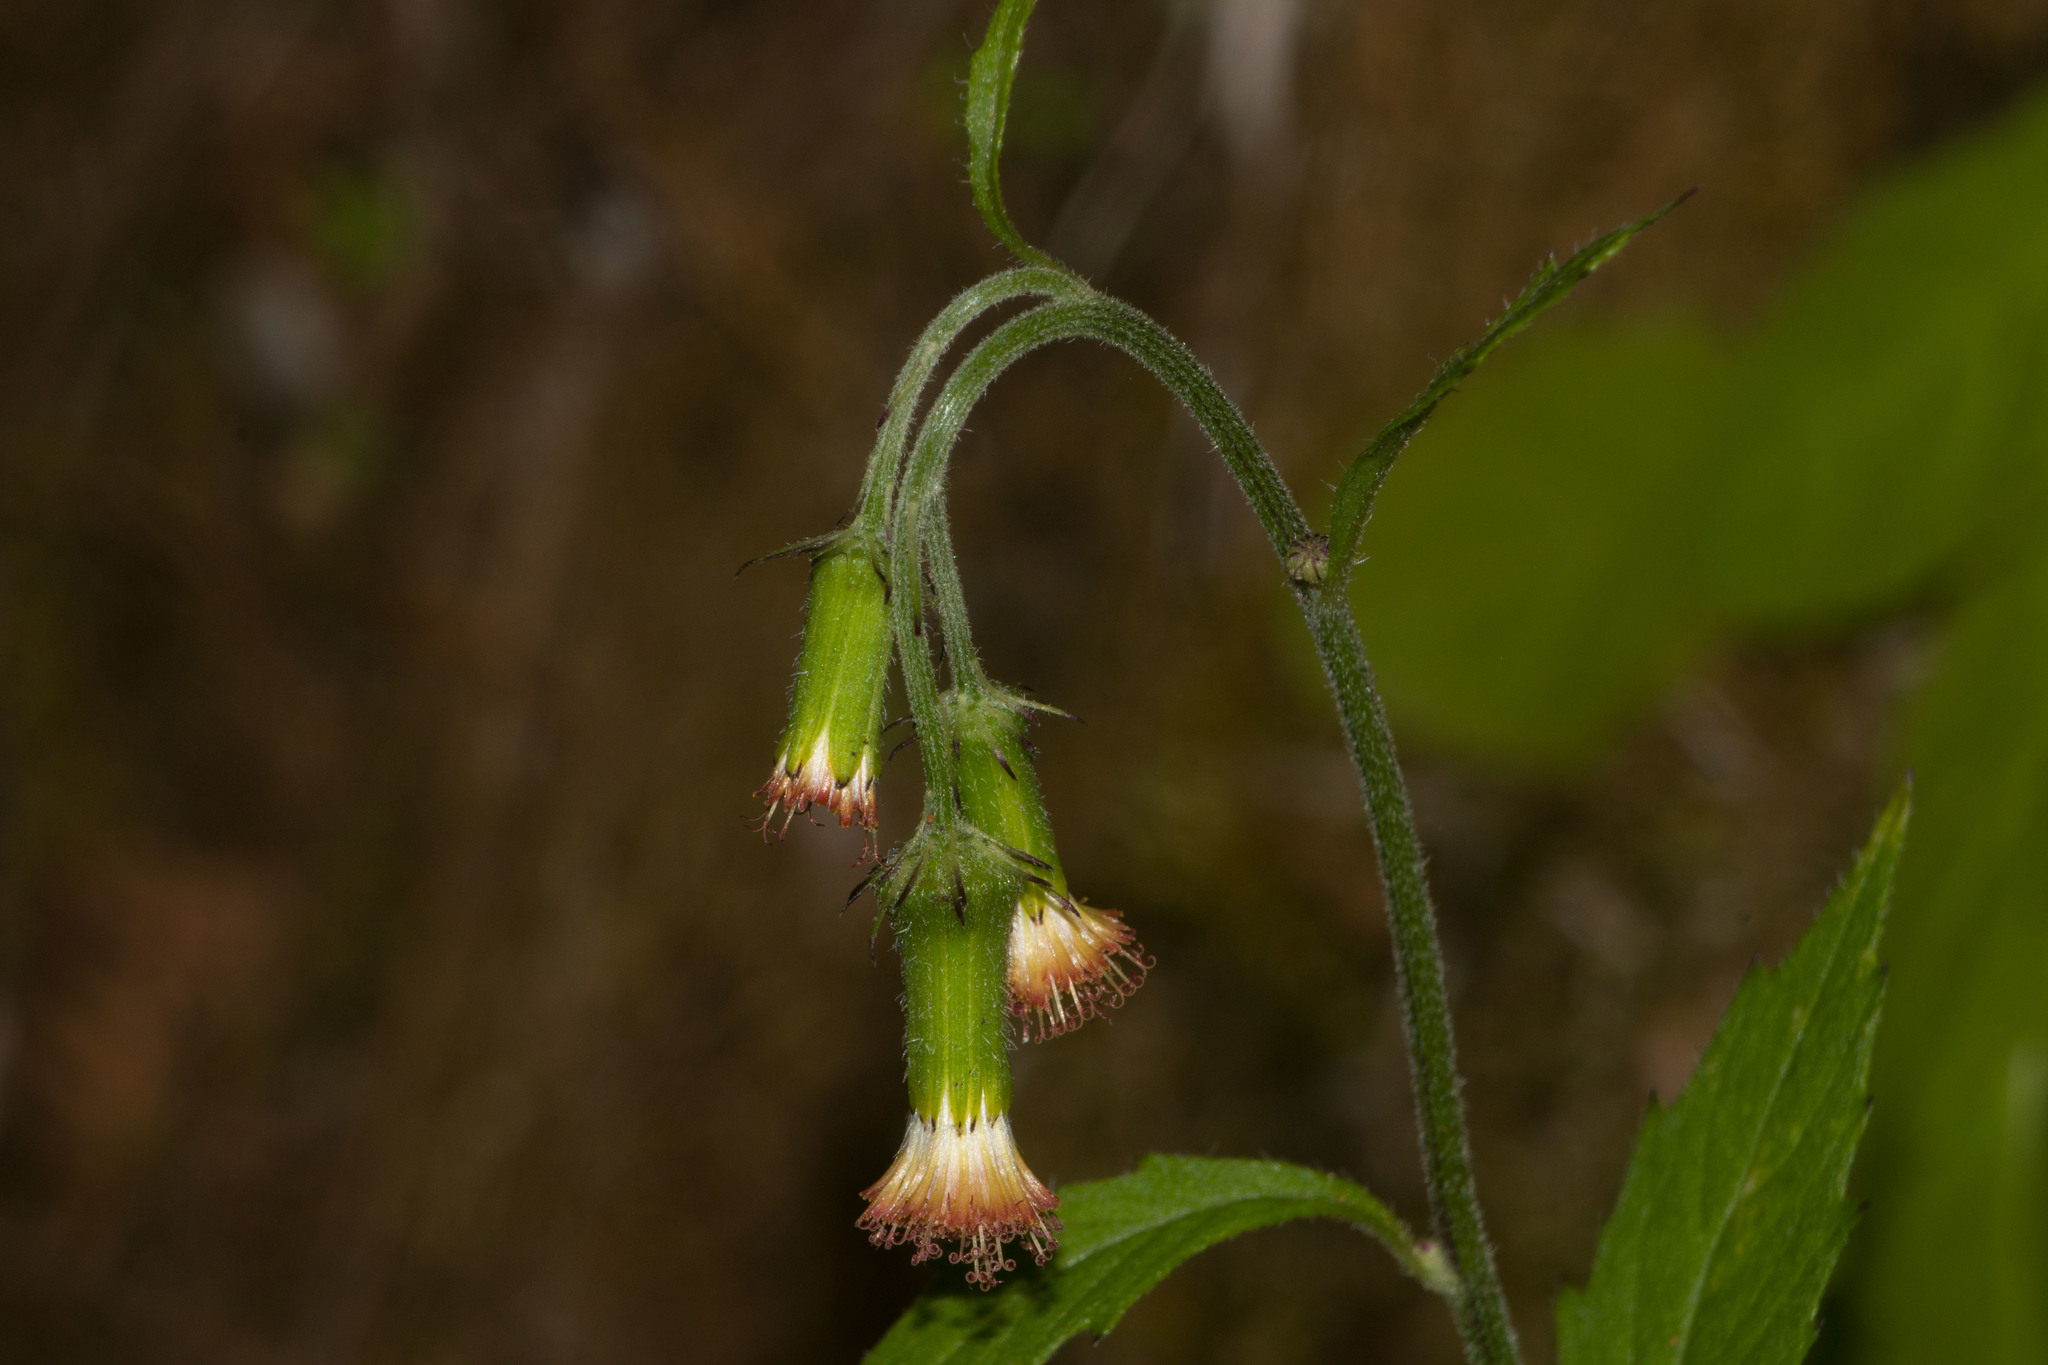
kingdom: Plantae
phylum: Tracheophyta
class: Magnoliopsida
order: Asterales
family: Asteraceae
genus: Crassocephalum
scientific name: Crassocephalum crepidioides
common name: Redflower ragleaf
